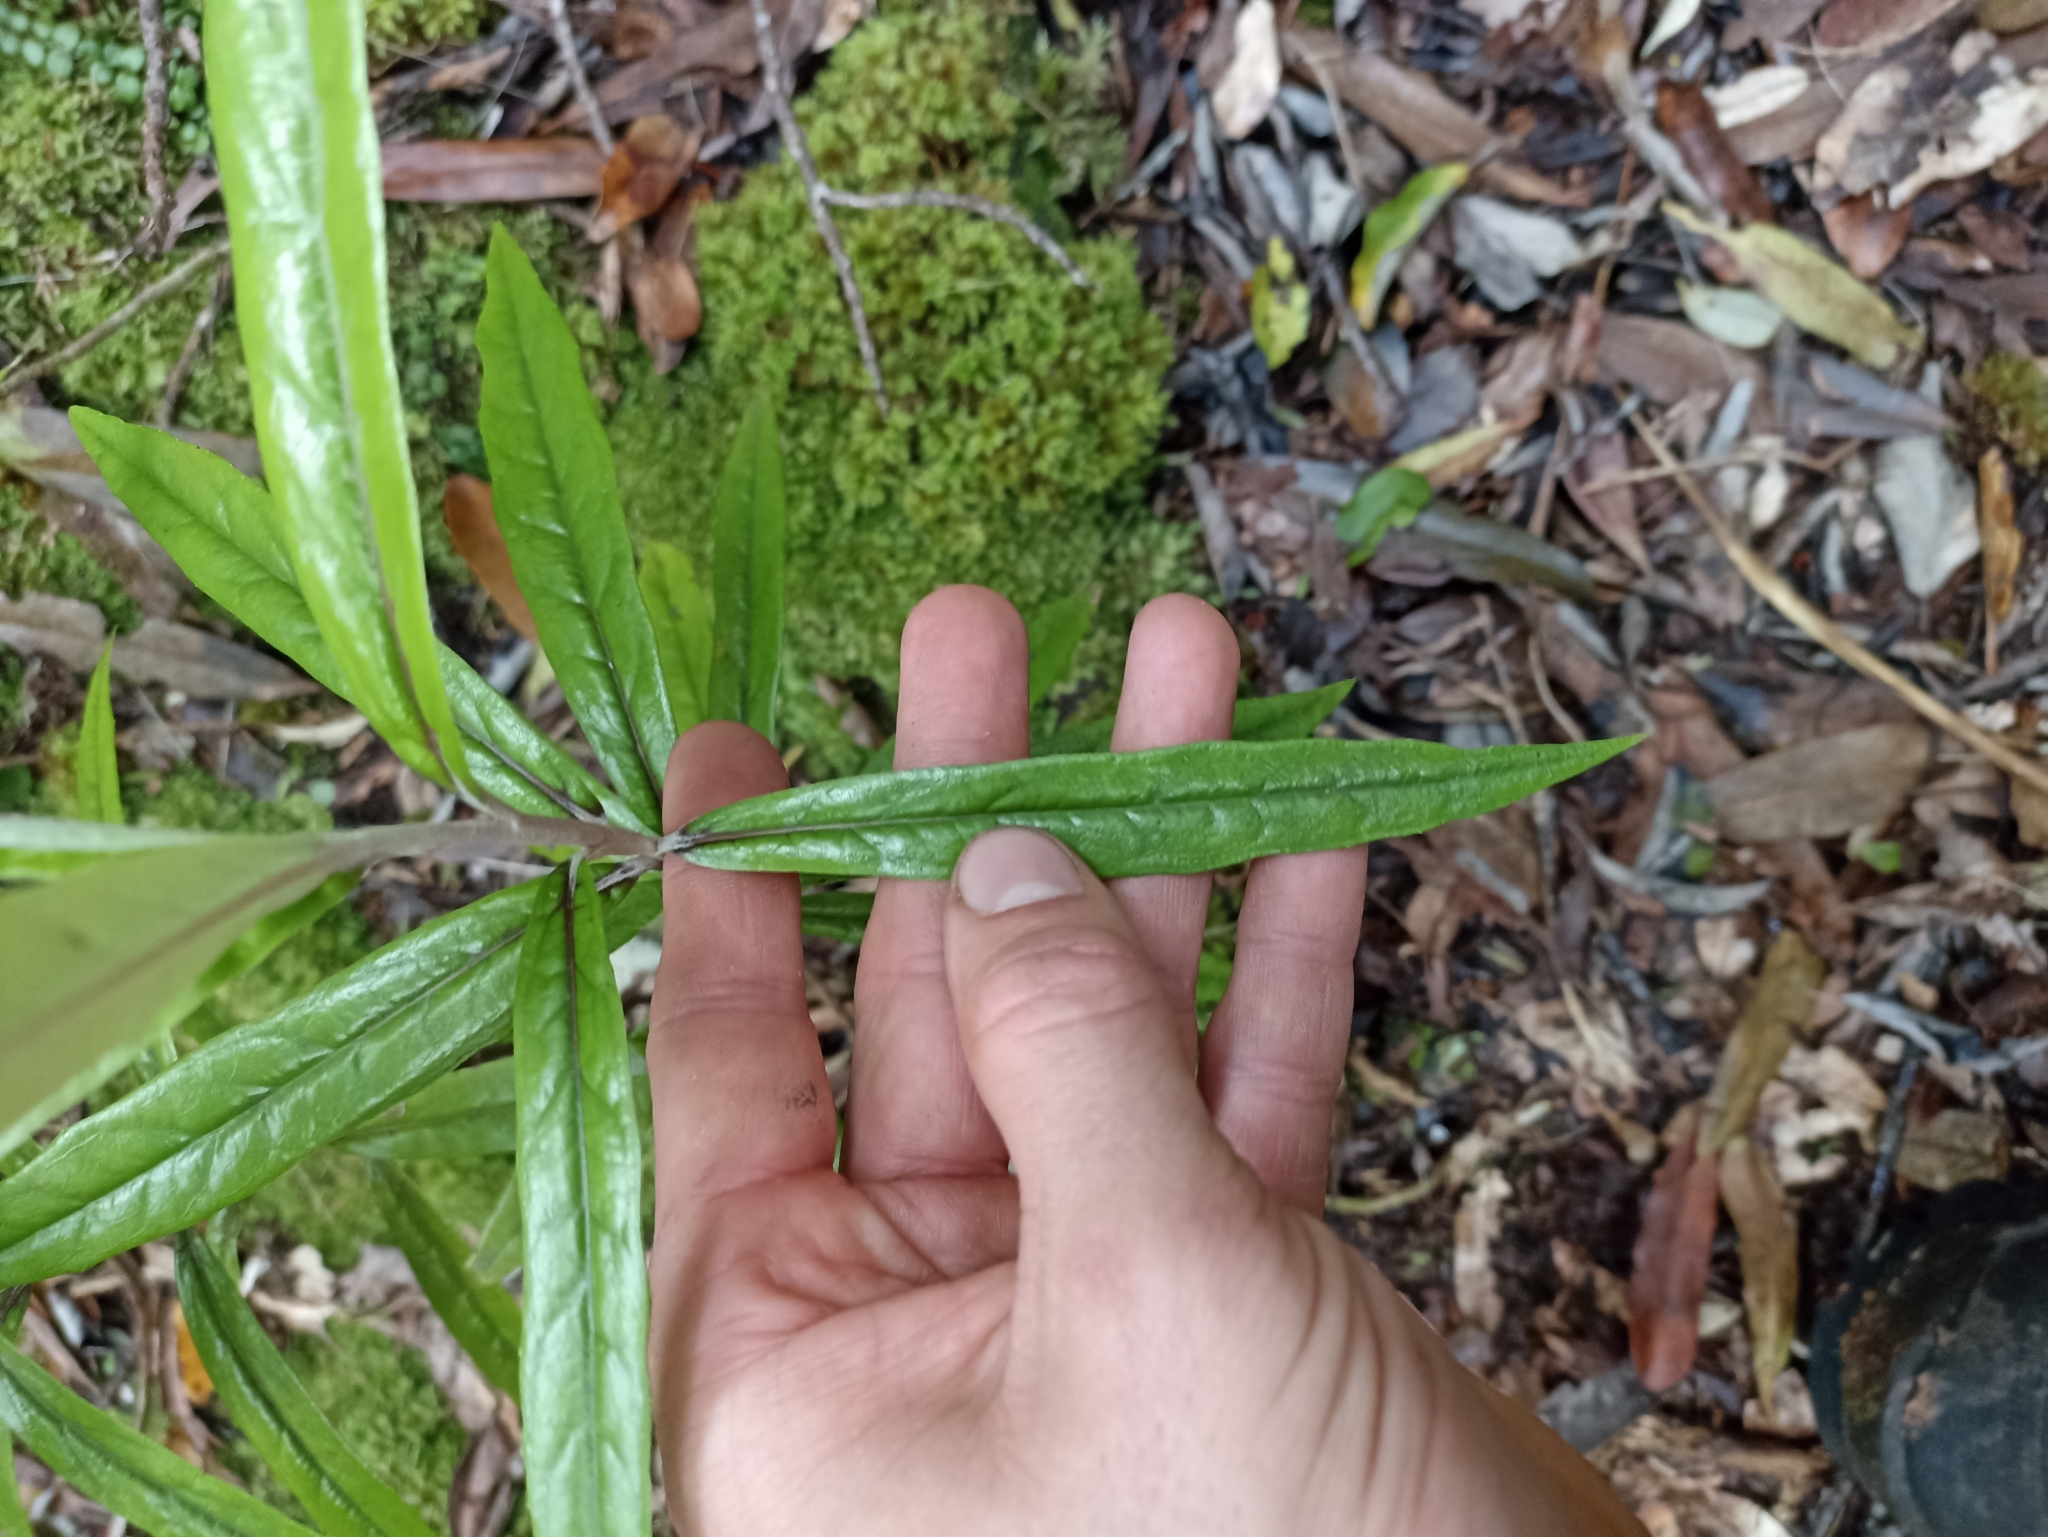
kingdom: Plantae
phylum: Tracheophyta
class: Magnoliopsida
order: Asterales
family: Argophyllaceae
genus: Corokia
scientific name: Corokia buddleioides
